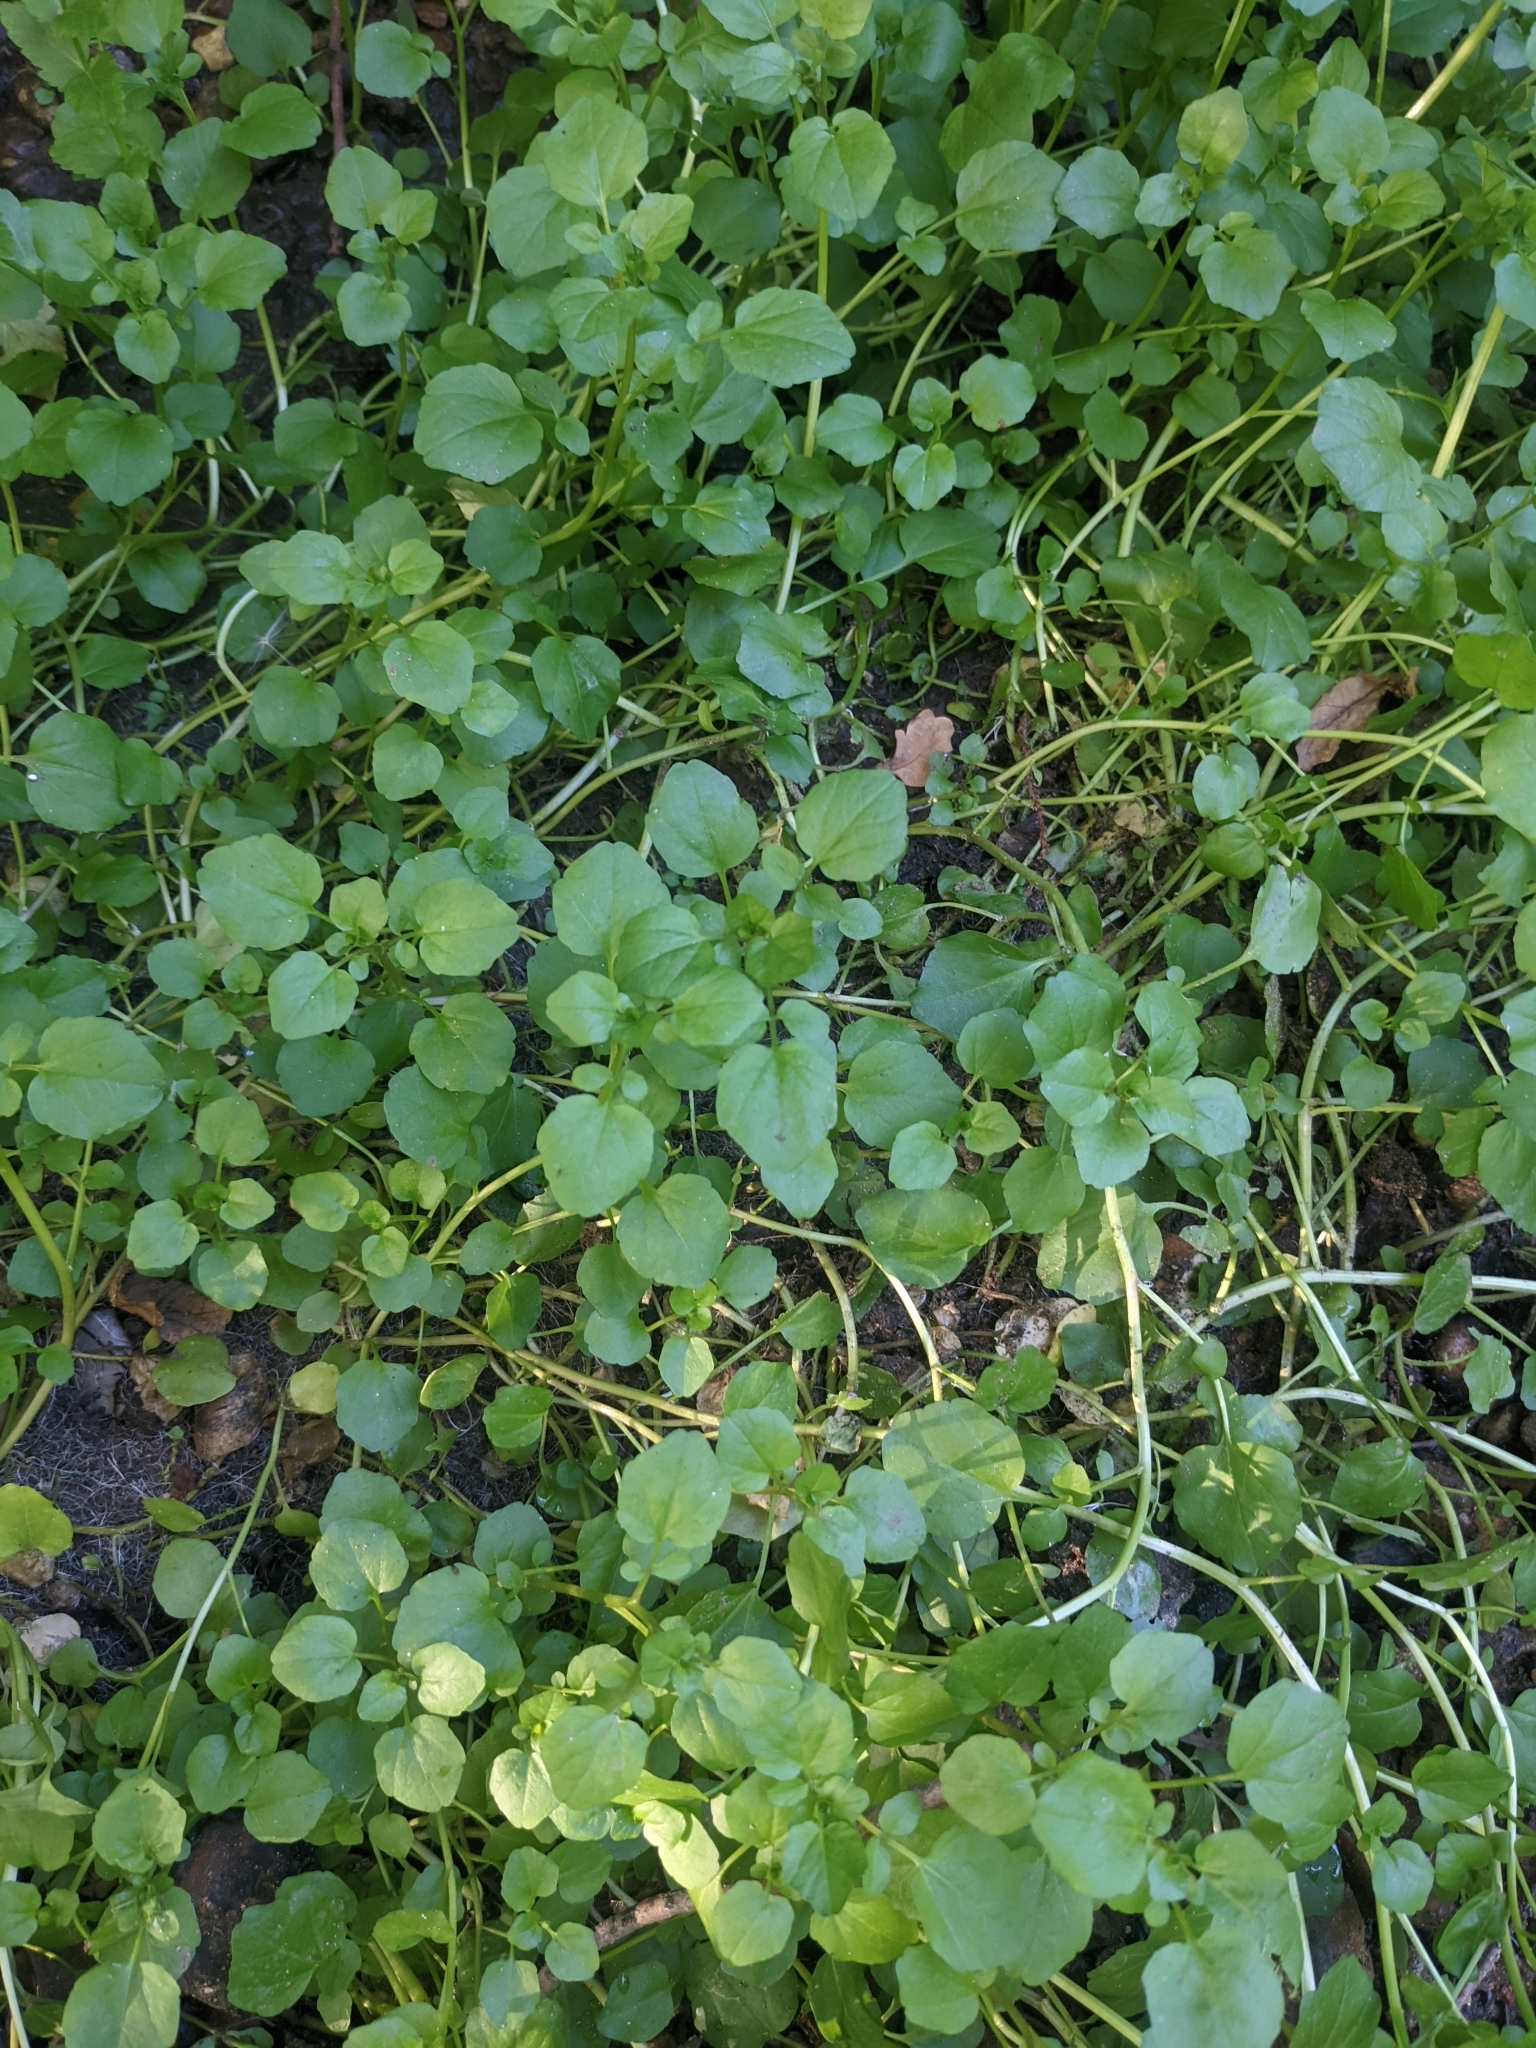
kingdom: Plantae
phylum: Tracheophyta
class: Magnoliopsida
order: Brassicales
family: Brassicaceae
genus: Nasturtium
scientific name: Nasturtium officinale
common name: Watercress
